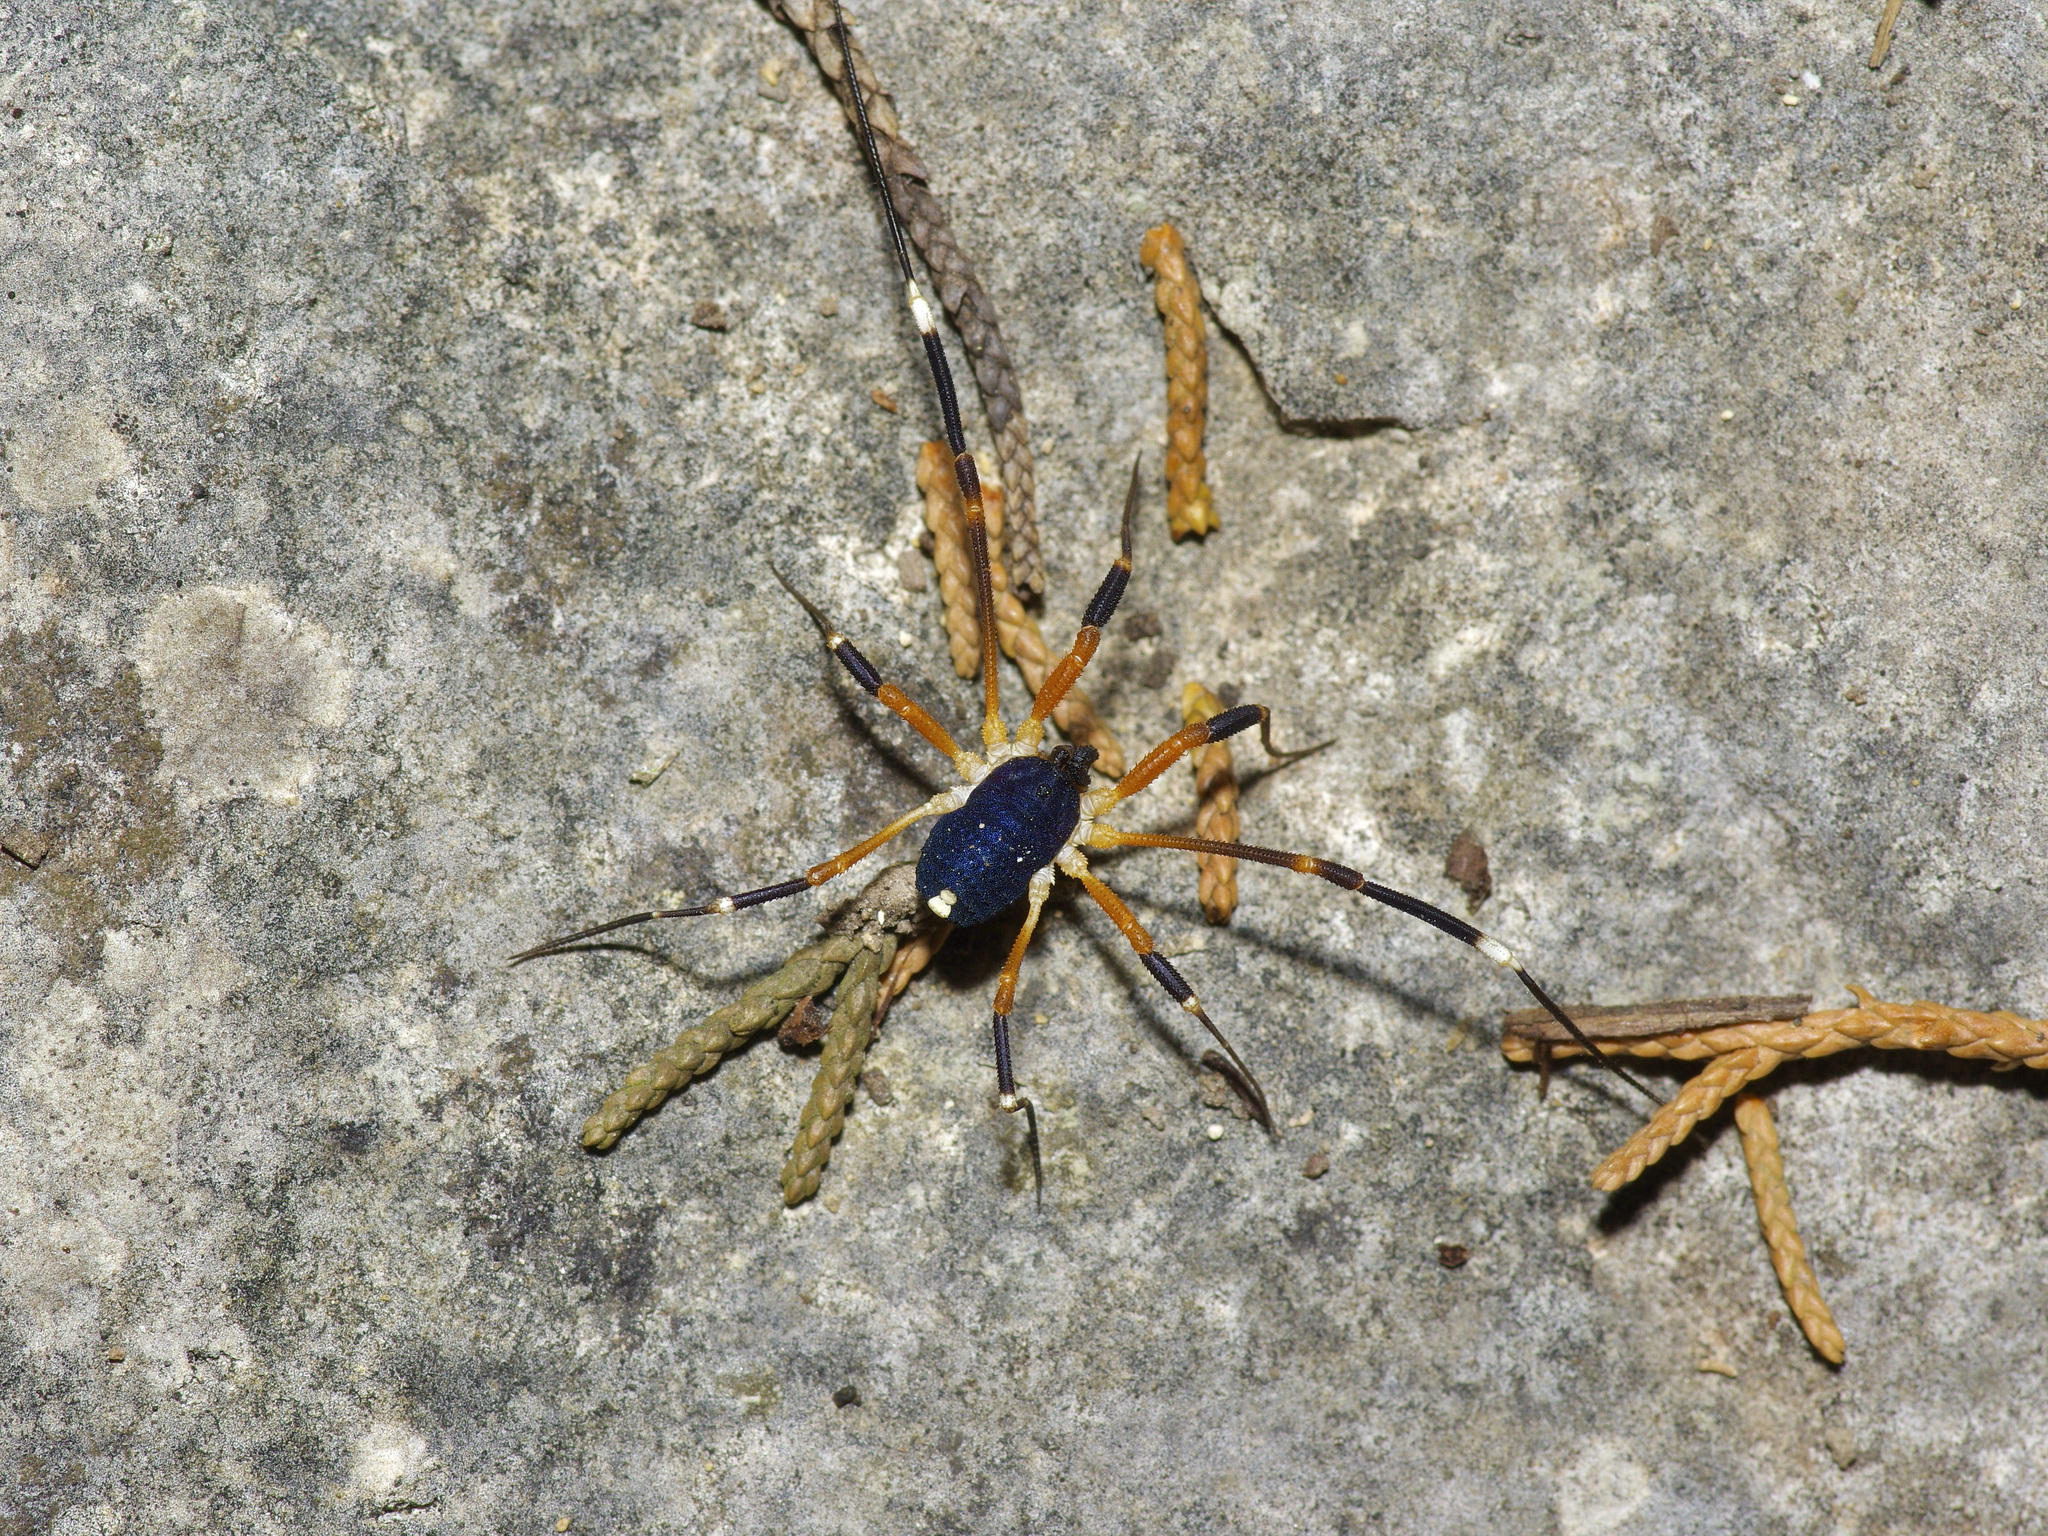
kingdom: Animalia
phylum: Arthropoda
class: Arachnida
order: Opiliones
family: Globipedidae
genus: Dalquestia
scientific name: Dalquestia formosa
